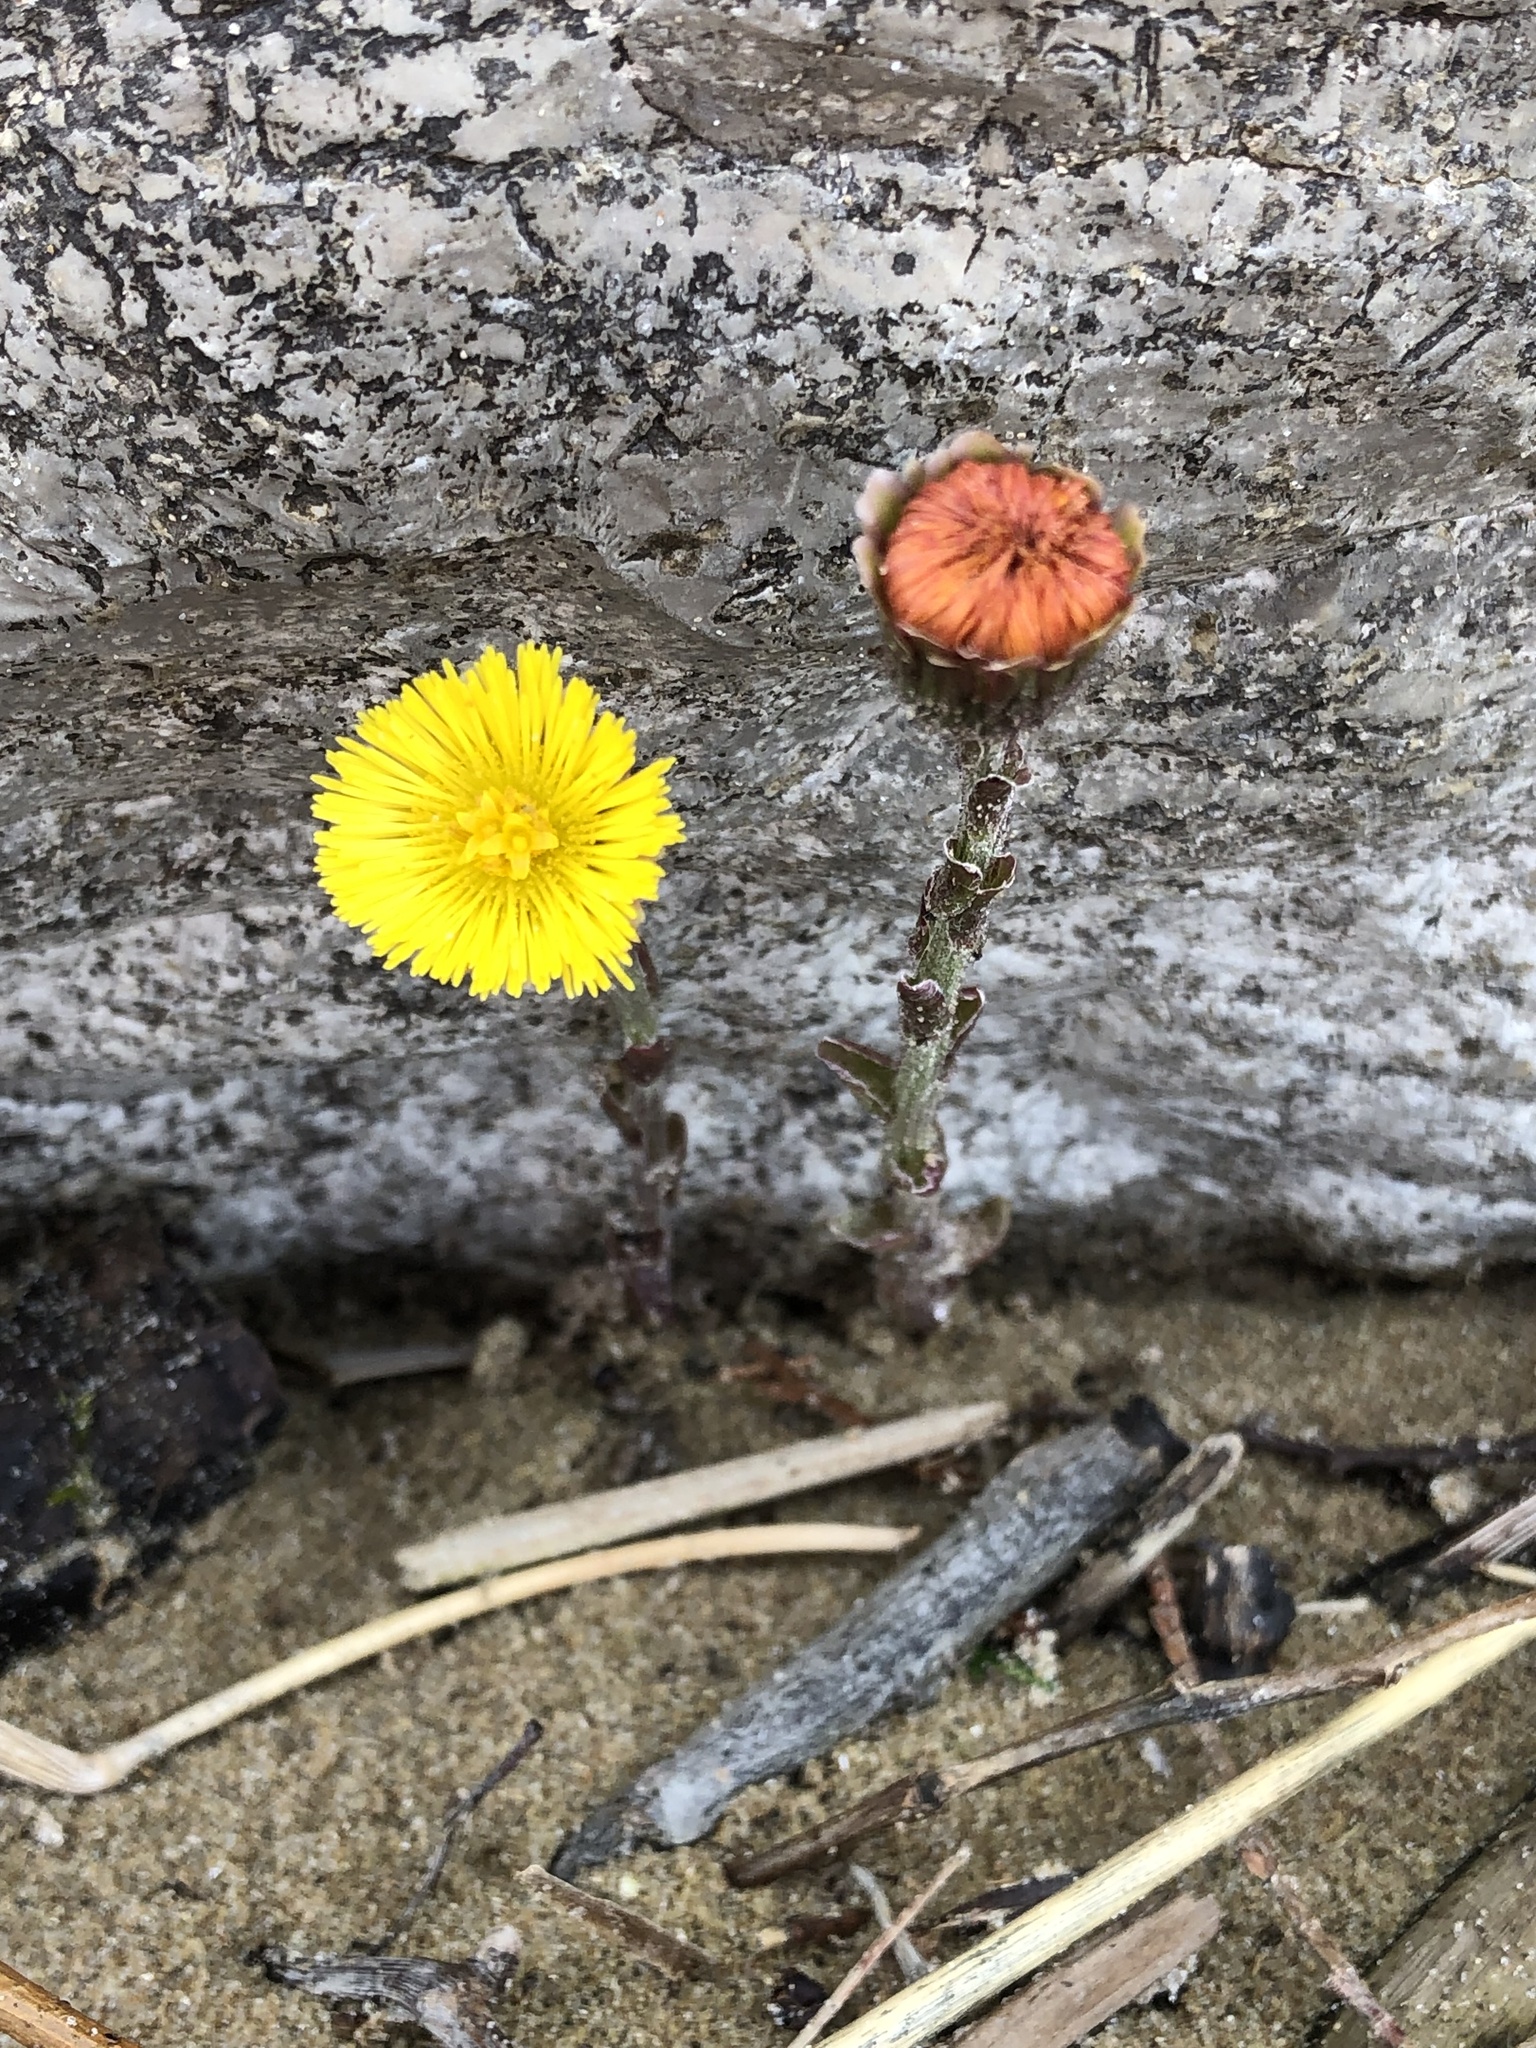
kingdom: Plantae
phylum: Tracheophyta
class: Magnoliopsida
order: Asterales
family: Asteraceae
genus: Tussilago
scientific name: Tussilago farfara
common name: Coltsfoot
